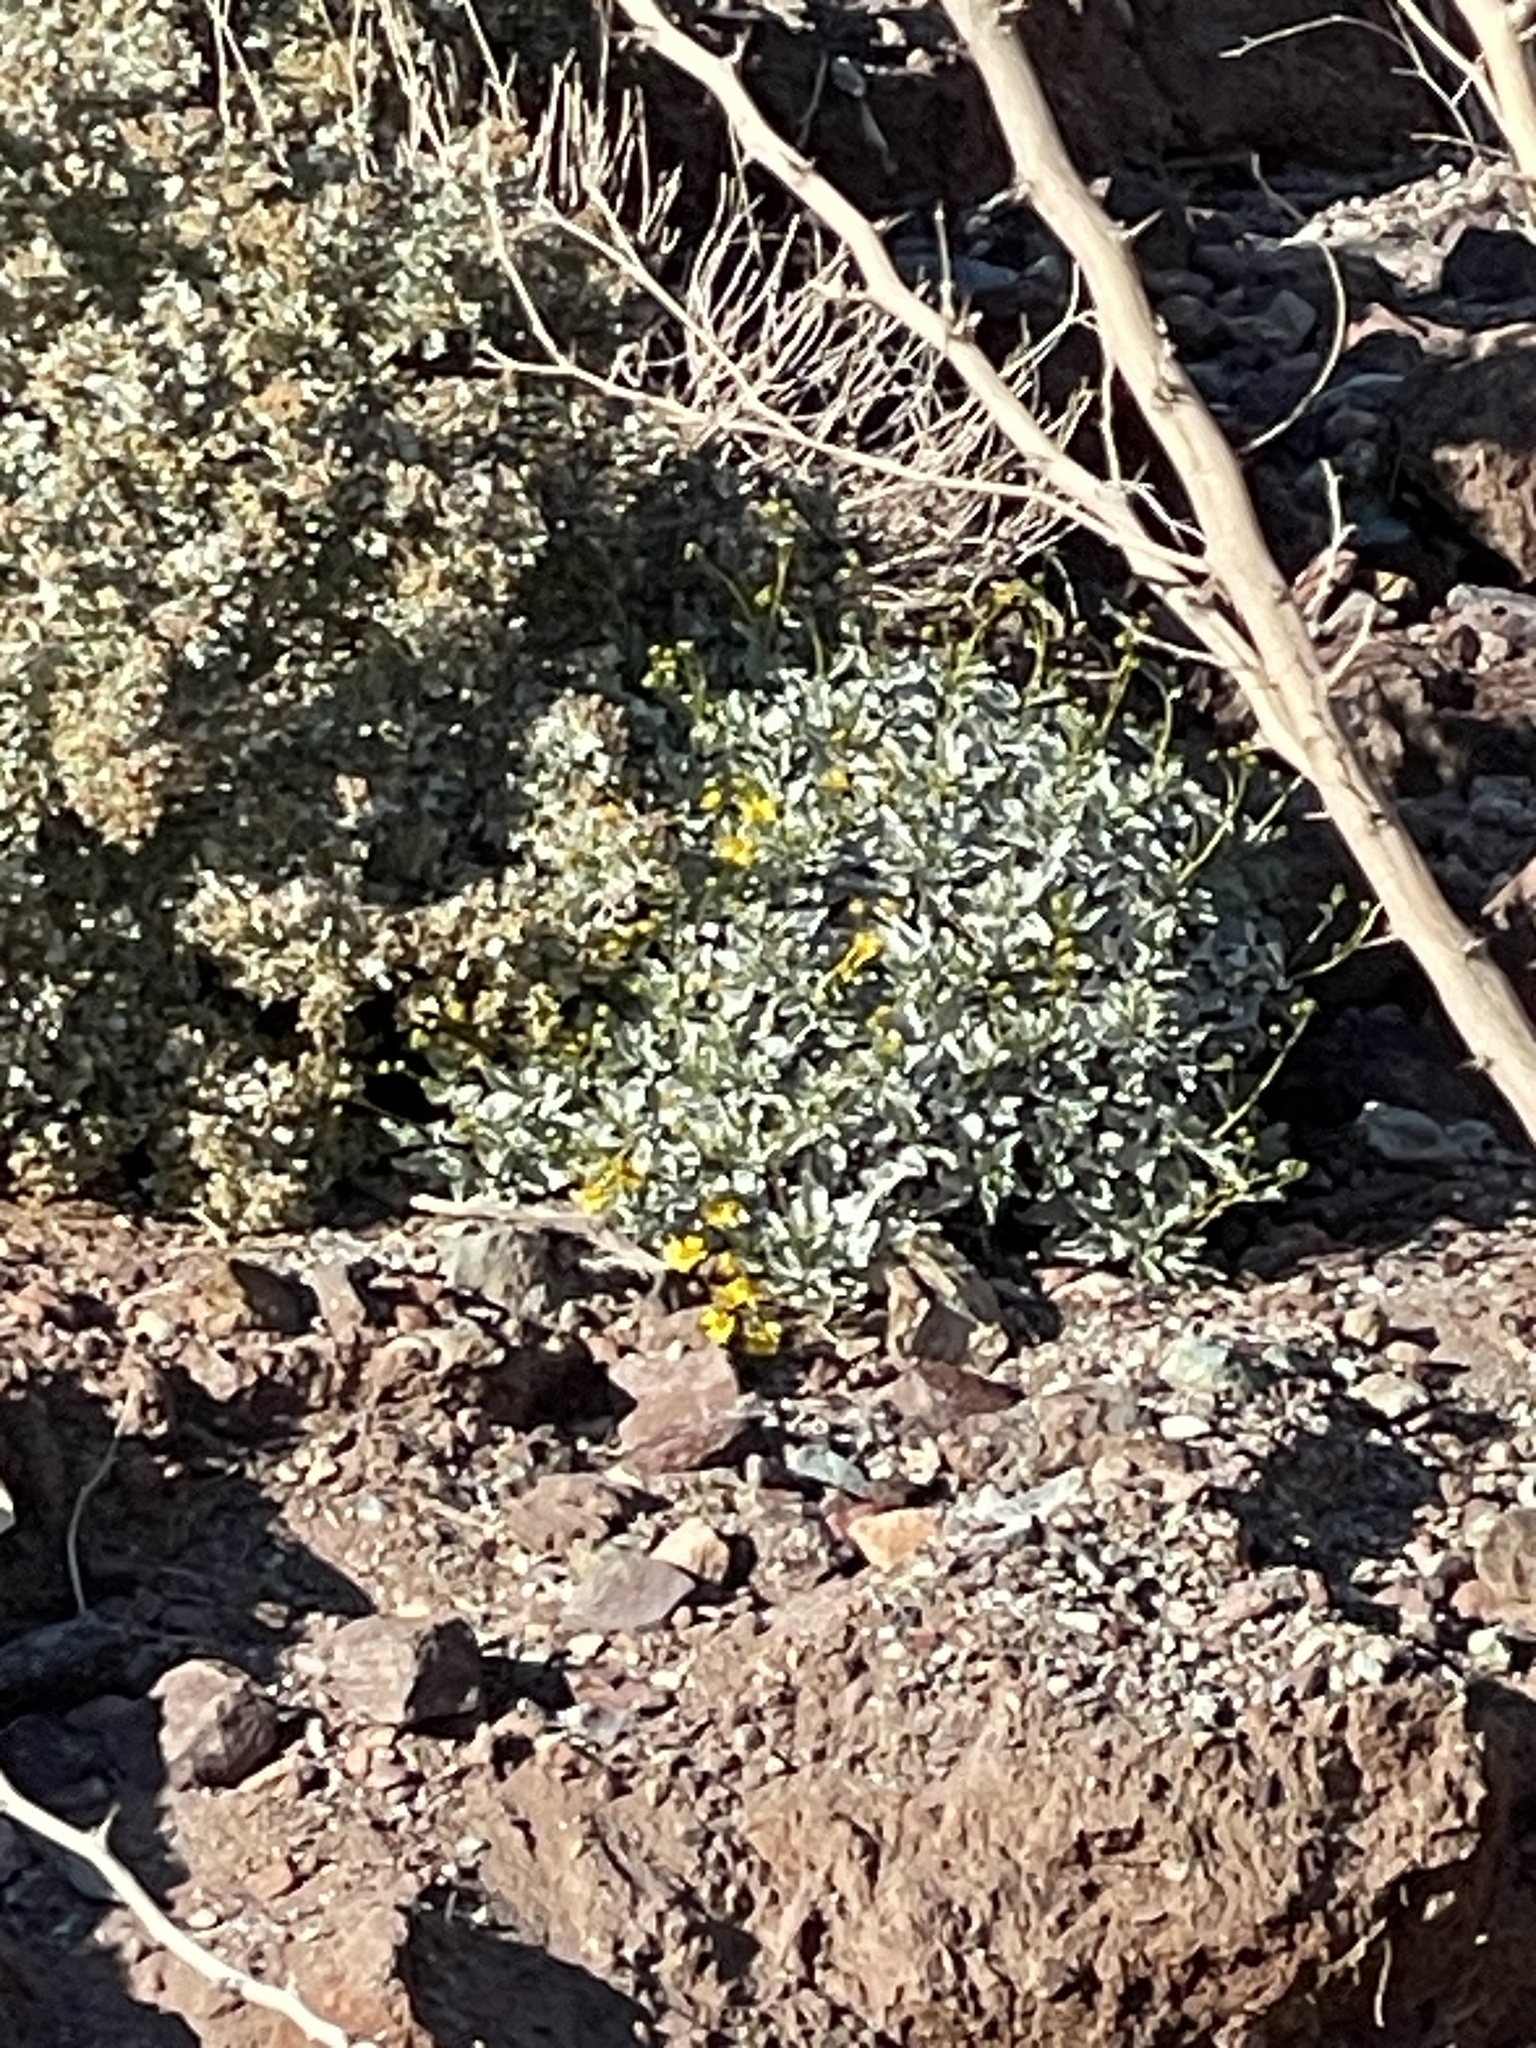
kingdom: Plantae
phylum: Tracheophyta
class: Magnoliopsida
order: Asterales
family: Asteraceae
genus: Encelia
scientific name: Encelia farinosa
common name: Brittlebush
